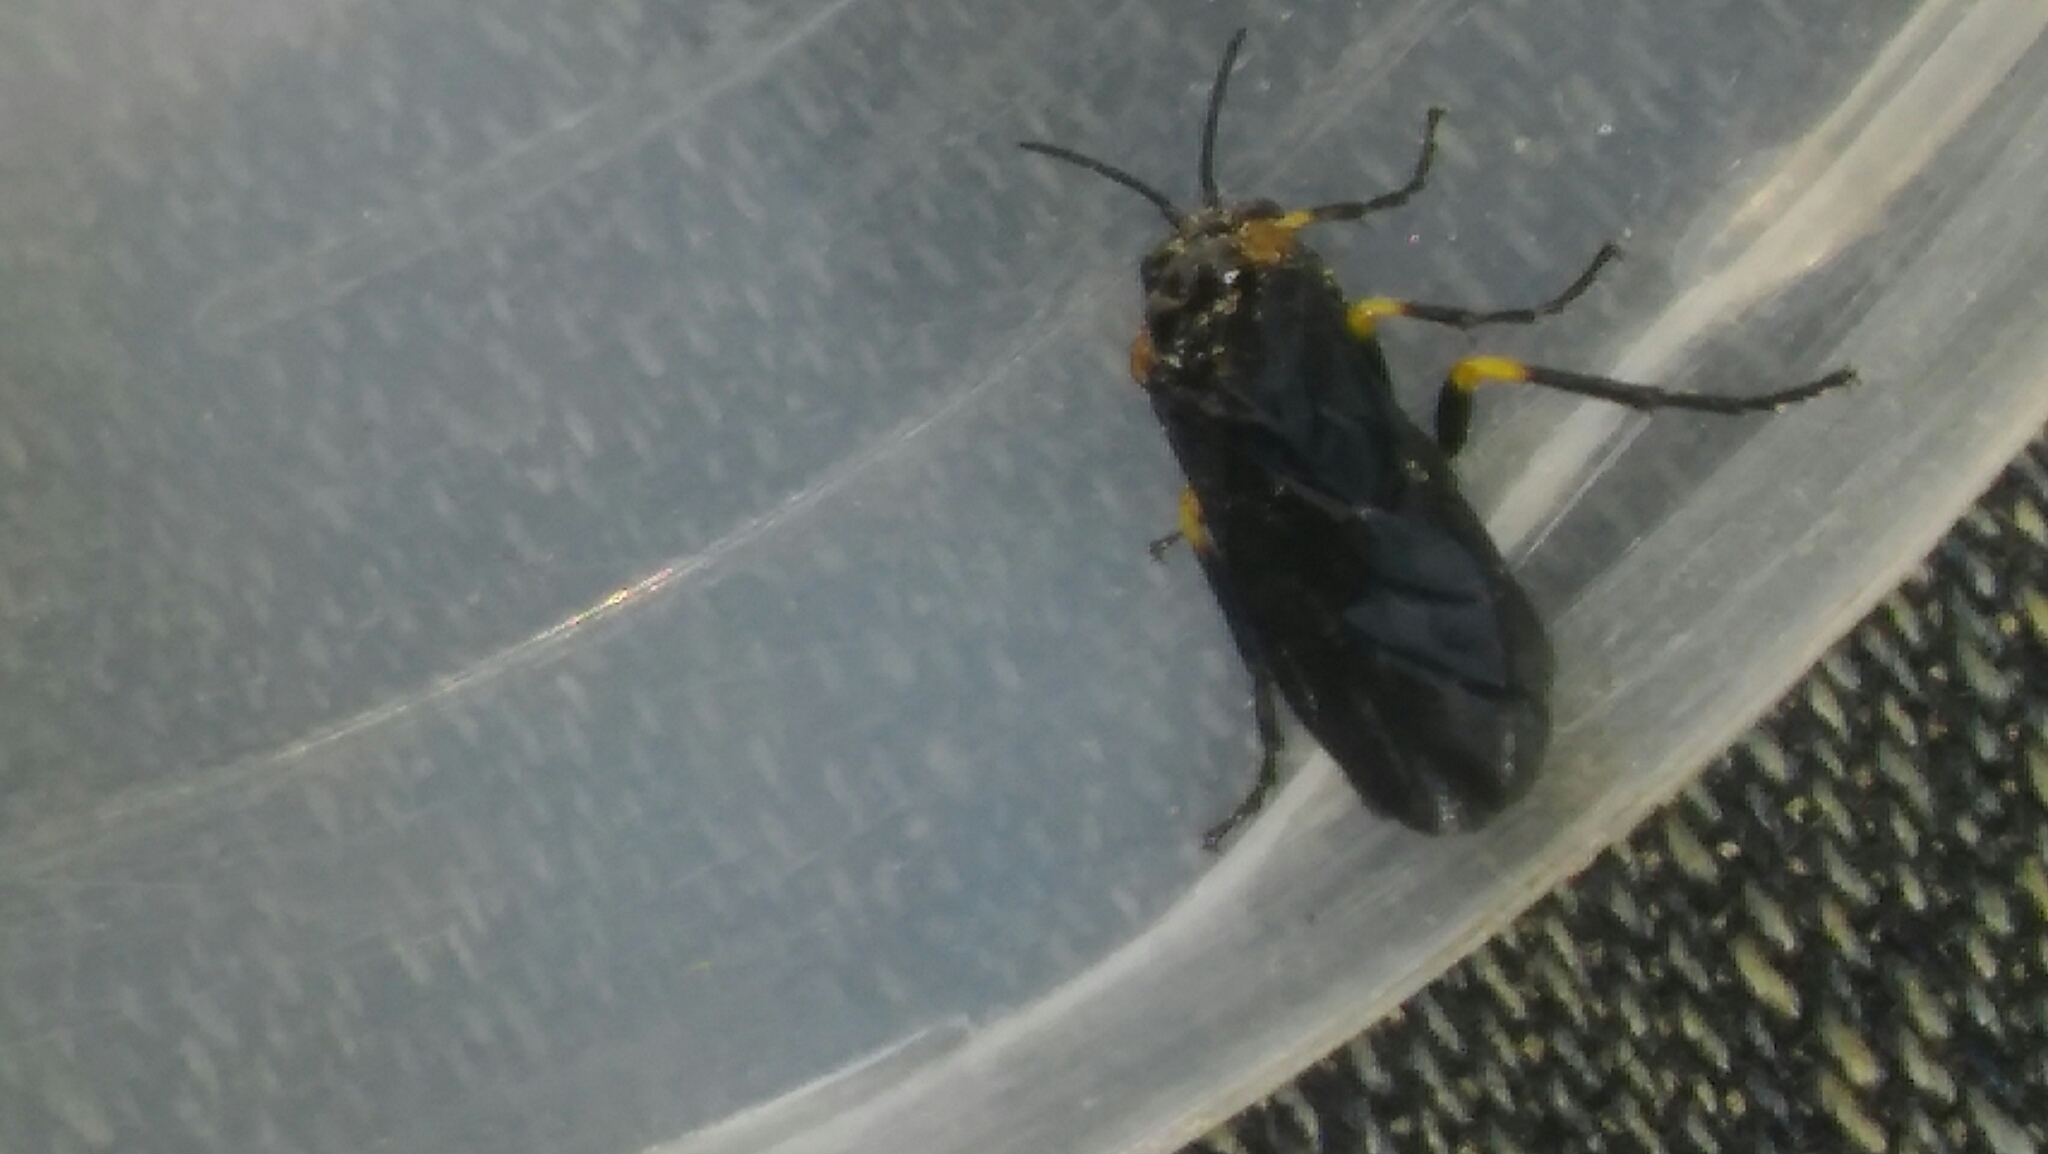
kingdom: Animalia
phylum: Arthropoda
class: Insecta
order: Hymenoptera
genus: Adurgoa
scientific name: Adurgoa
